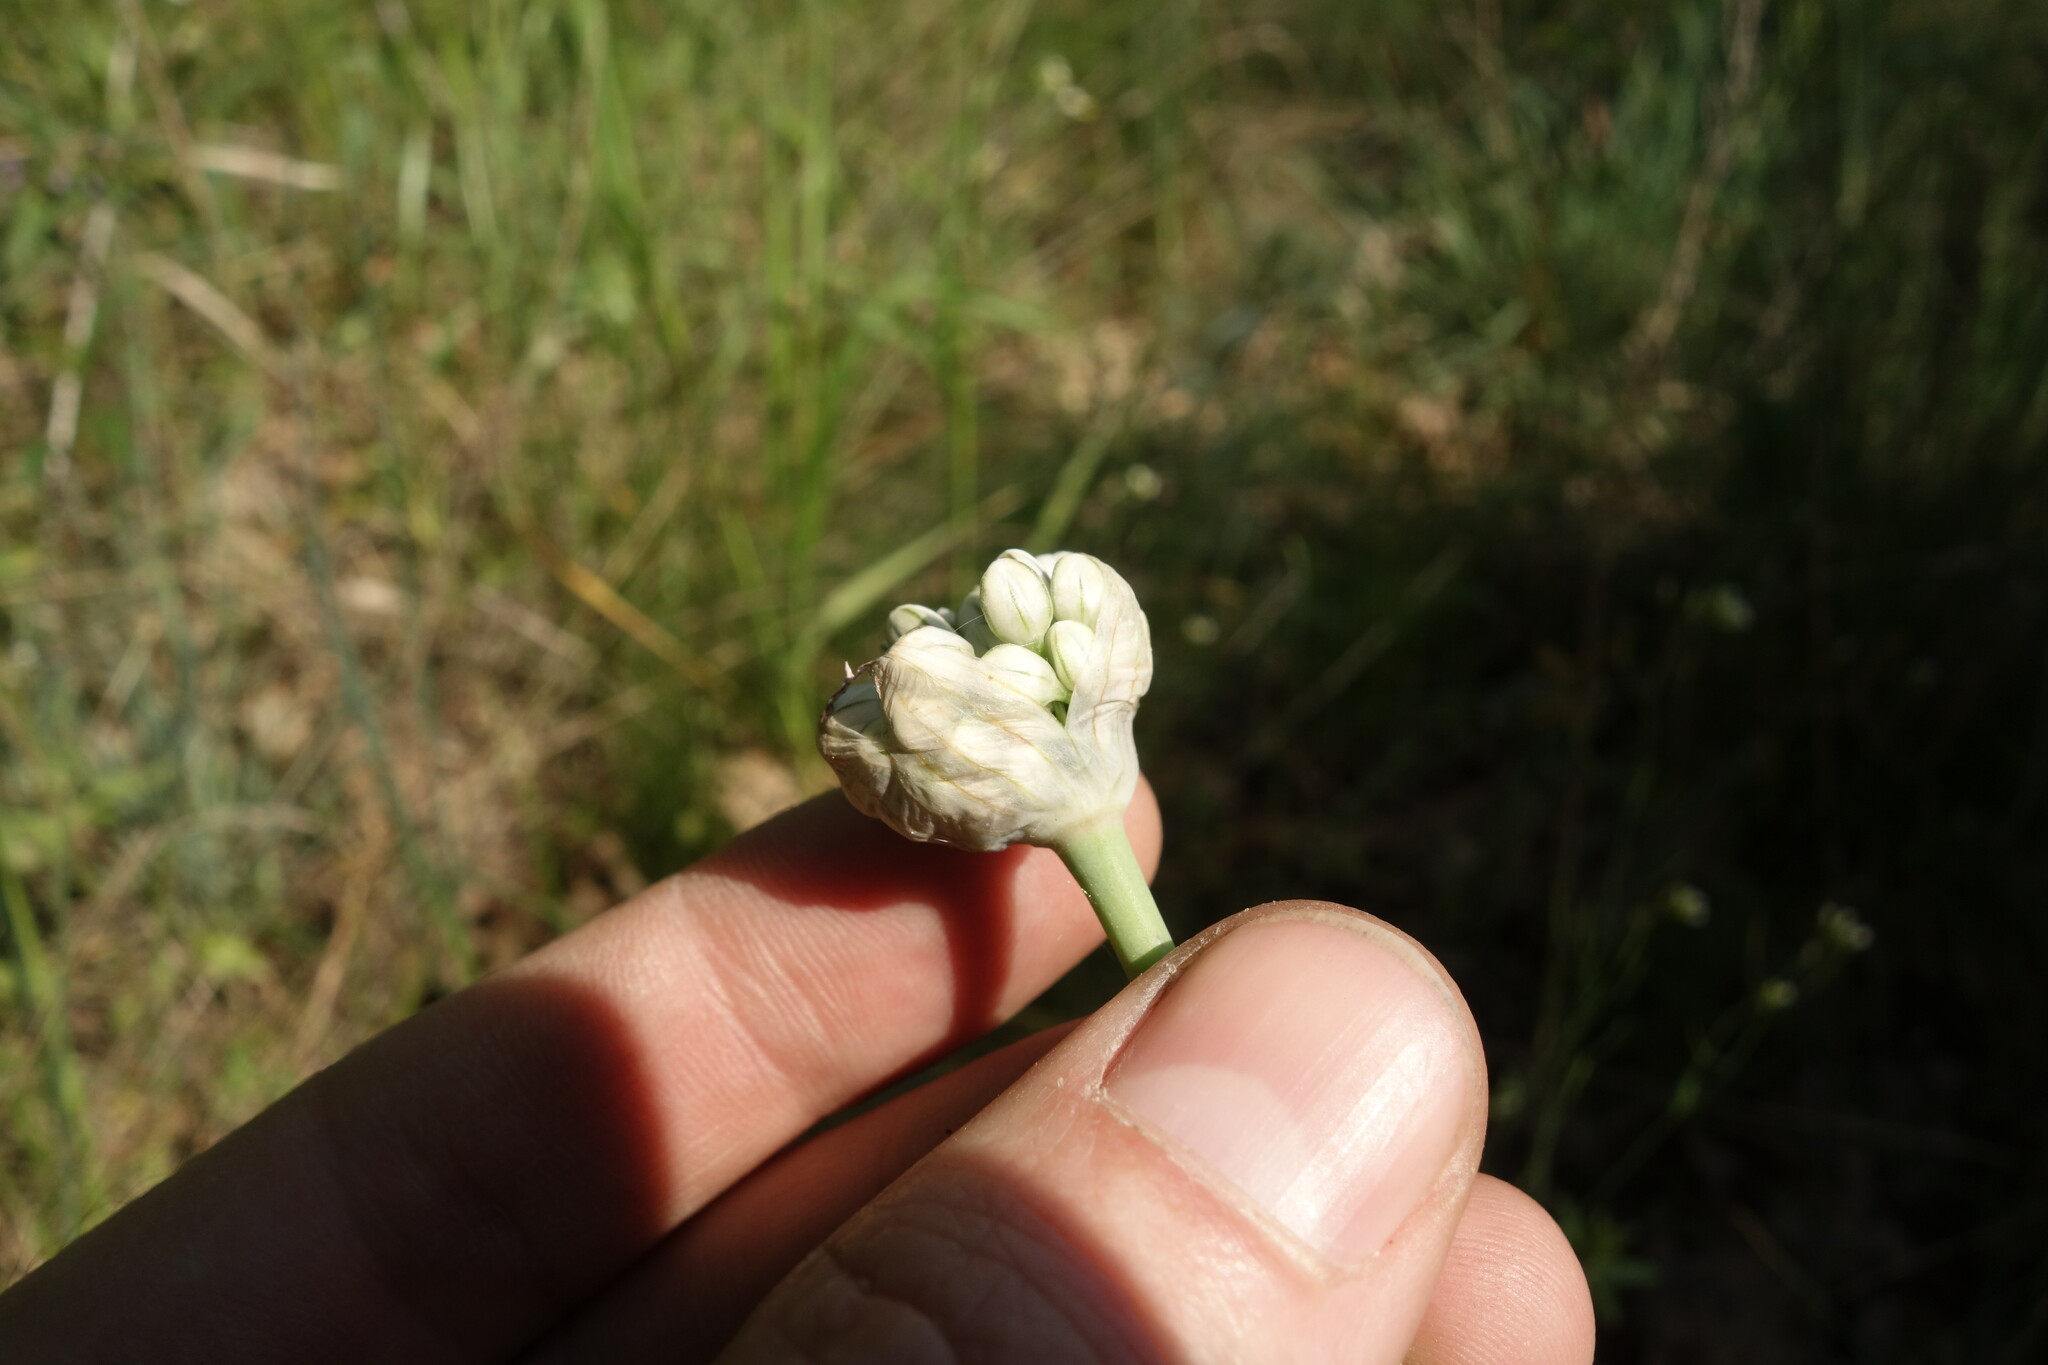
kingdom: Plantae
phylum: Tracheophyta
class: Liliopsida
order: Asparagales
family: Amaryllidaceae
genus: Allium
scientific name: Allium tulipifolium
